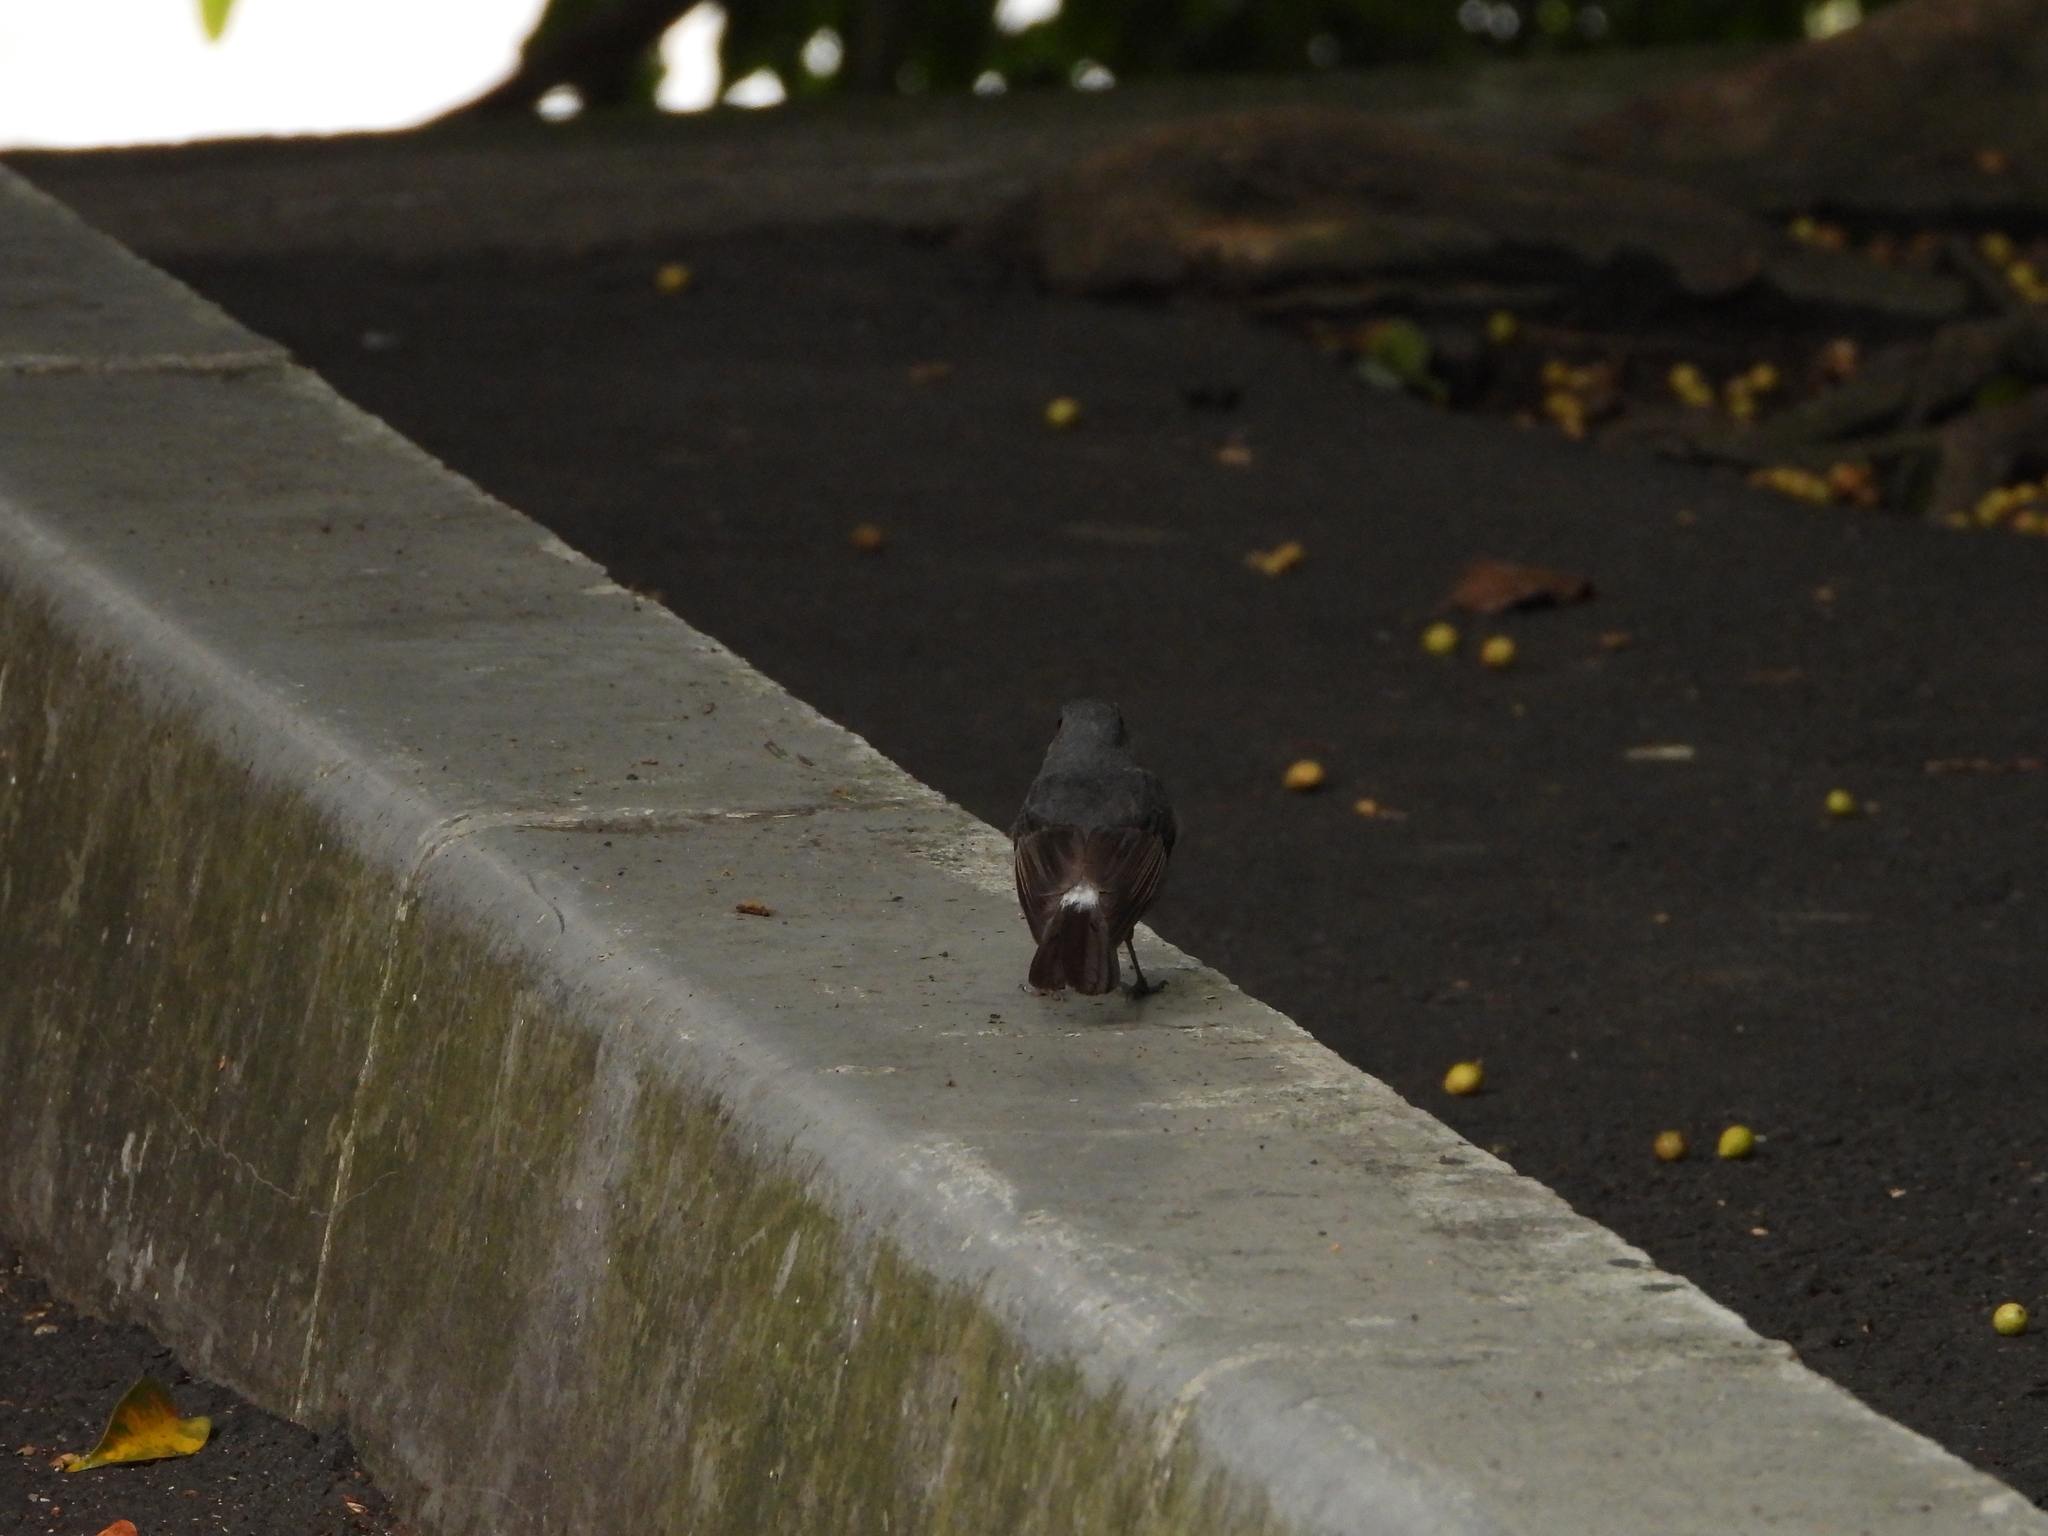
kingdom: Animalia
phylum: Chordata
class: Aves
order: Passeriformes
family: Muscicapidae
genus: Phoenicurus
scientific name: Phoenicurus fuliginosus
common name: Plumbeous water redstart
